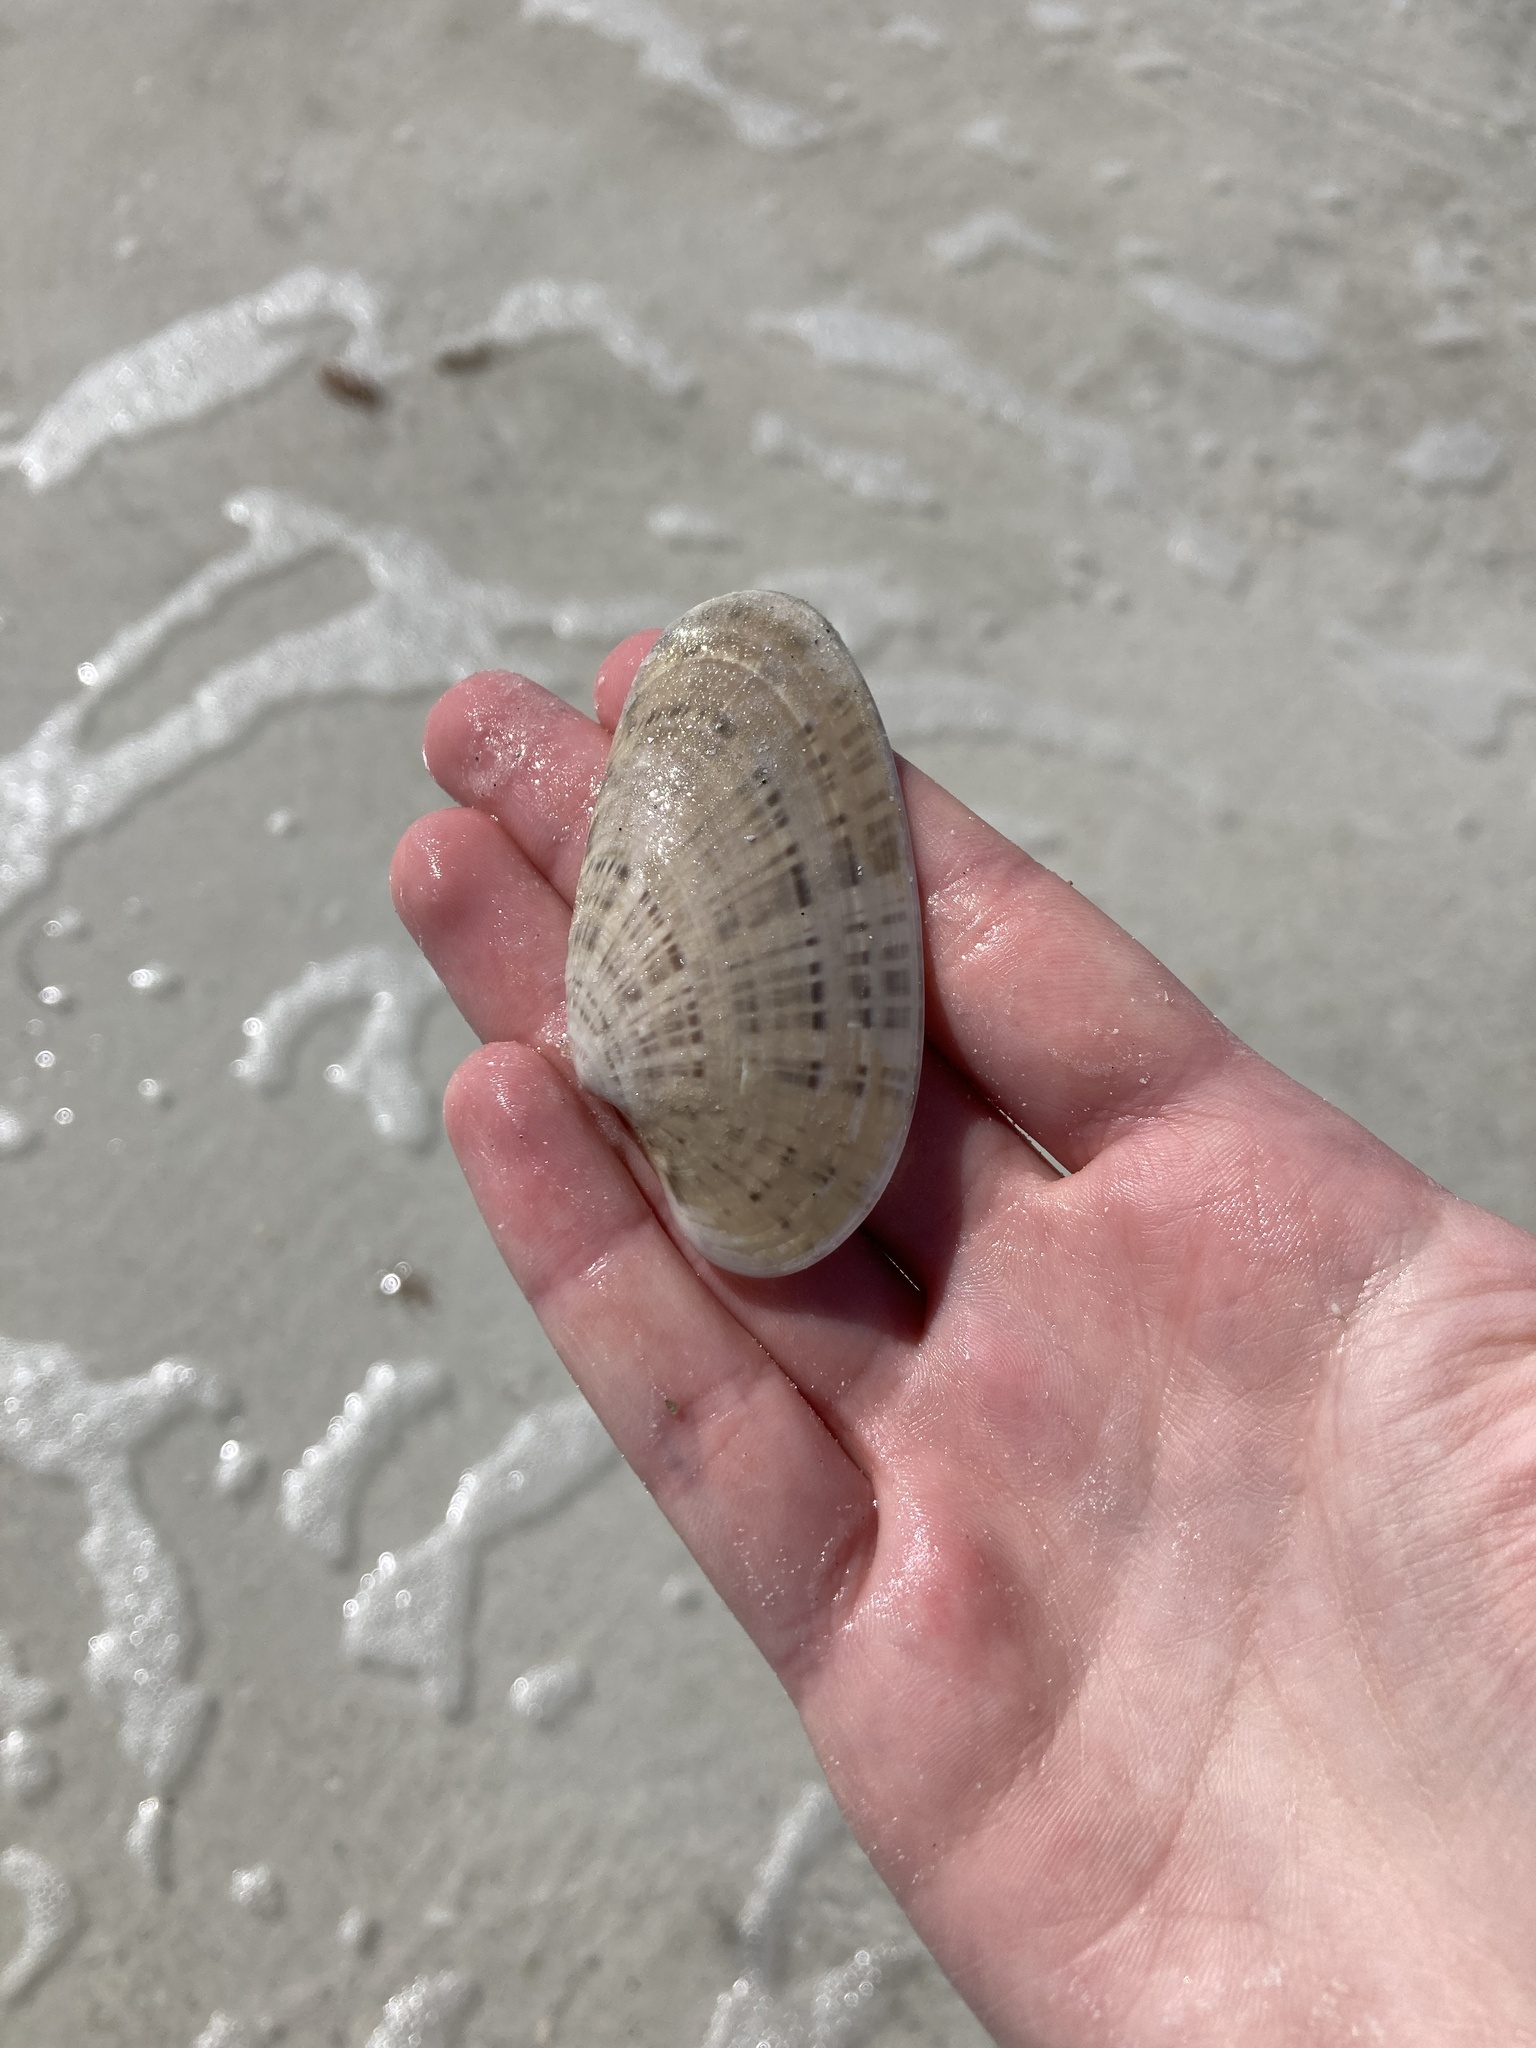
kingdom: Animalia
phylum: Mollusca
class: Bivalvia
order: Venerida
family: Veneridae
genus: Macrocallista
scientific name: Macrocallista nimbosa
